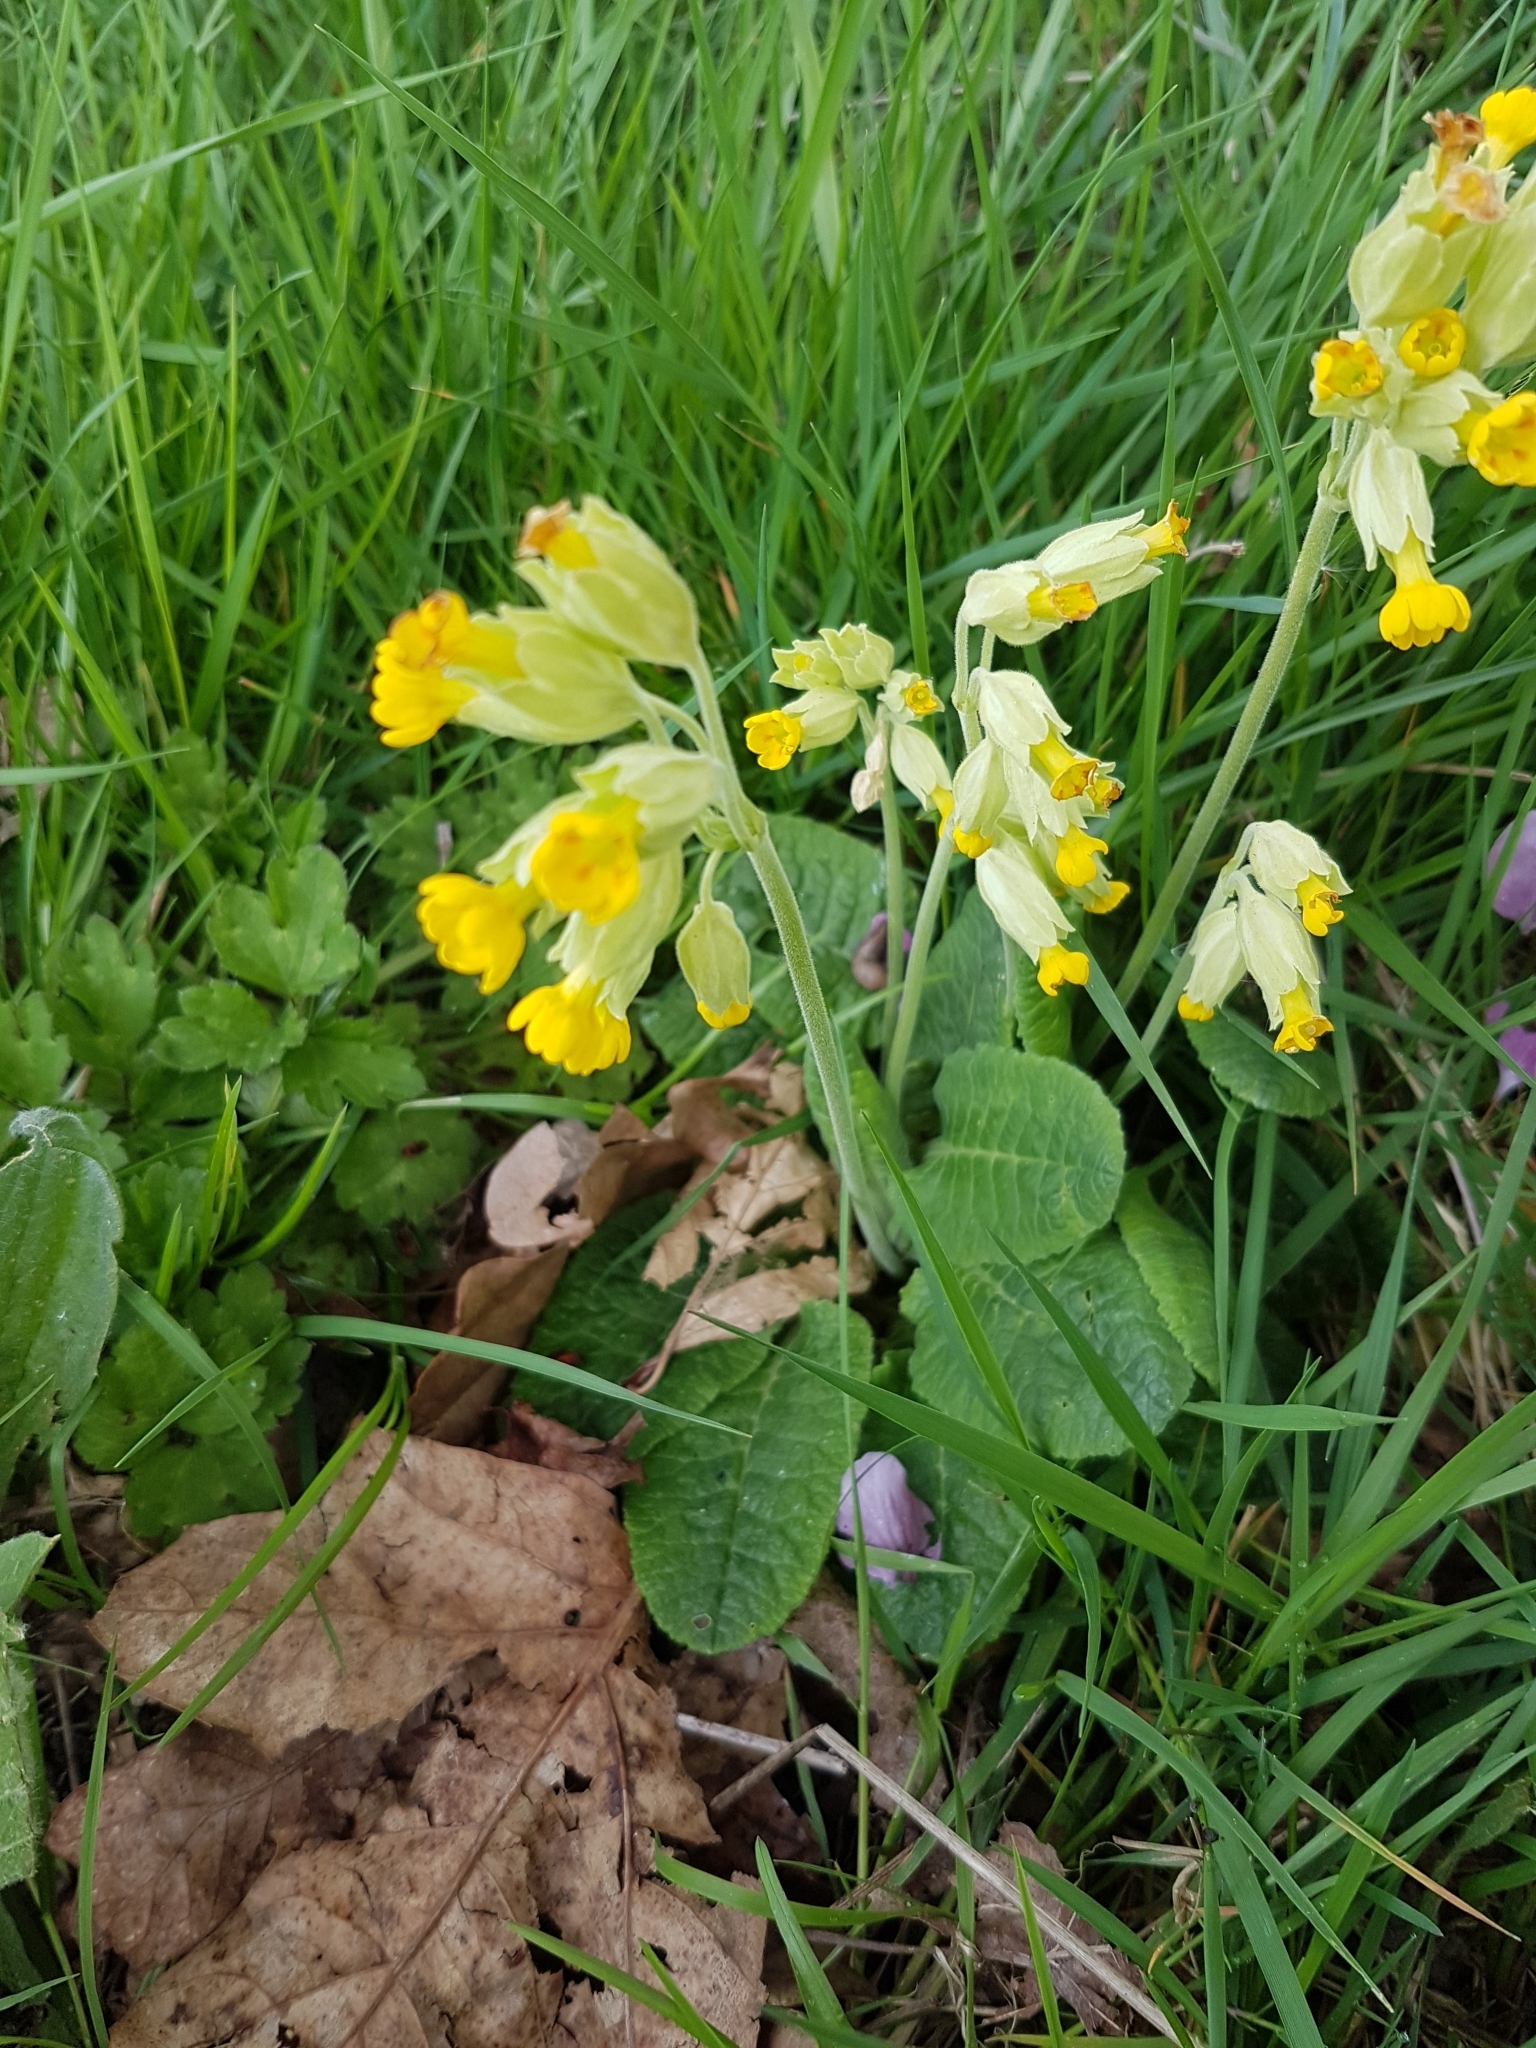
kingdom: Plantae
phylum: Tracheophyta
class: Magnoliopsida
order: Ericales
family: Primulaceae
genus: Primula
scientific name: Primula veris
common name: Cowslip
